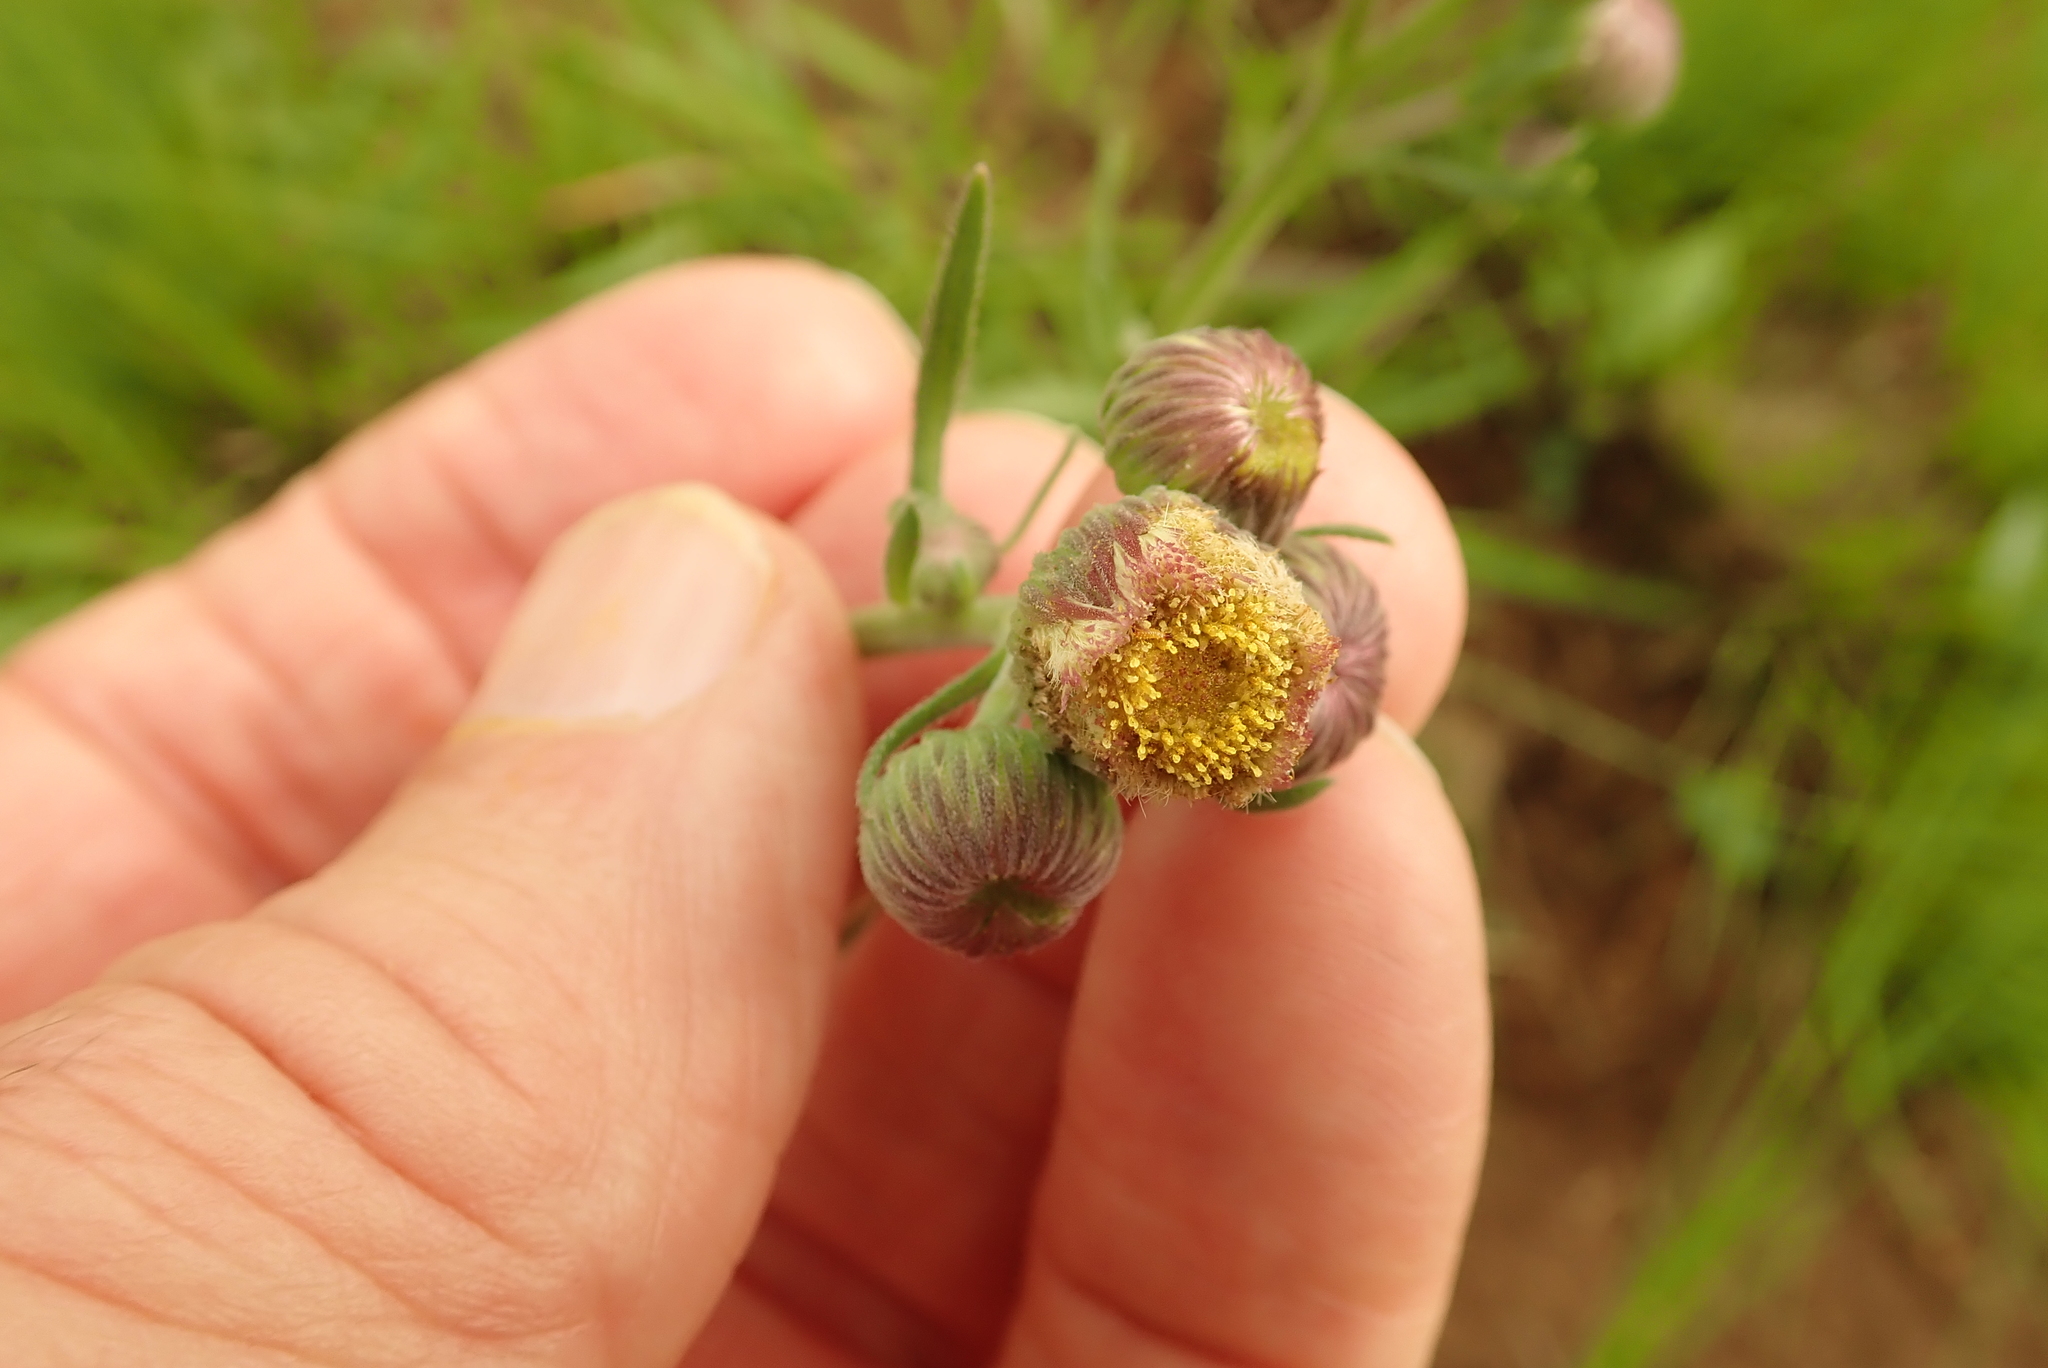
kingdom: Plantae
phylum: Tracheophyta
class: Magnoliopsida
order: Asterales
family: Asteraceae
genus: Erigeron
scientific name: Erigeron primulifolius
